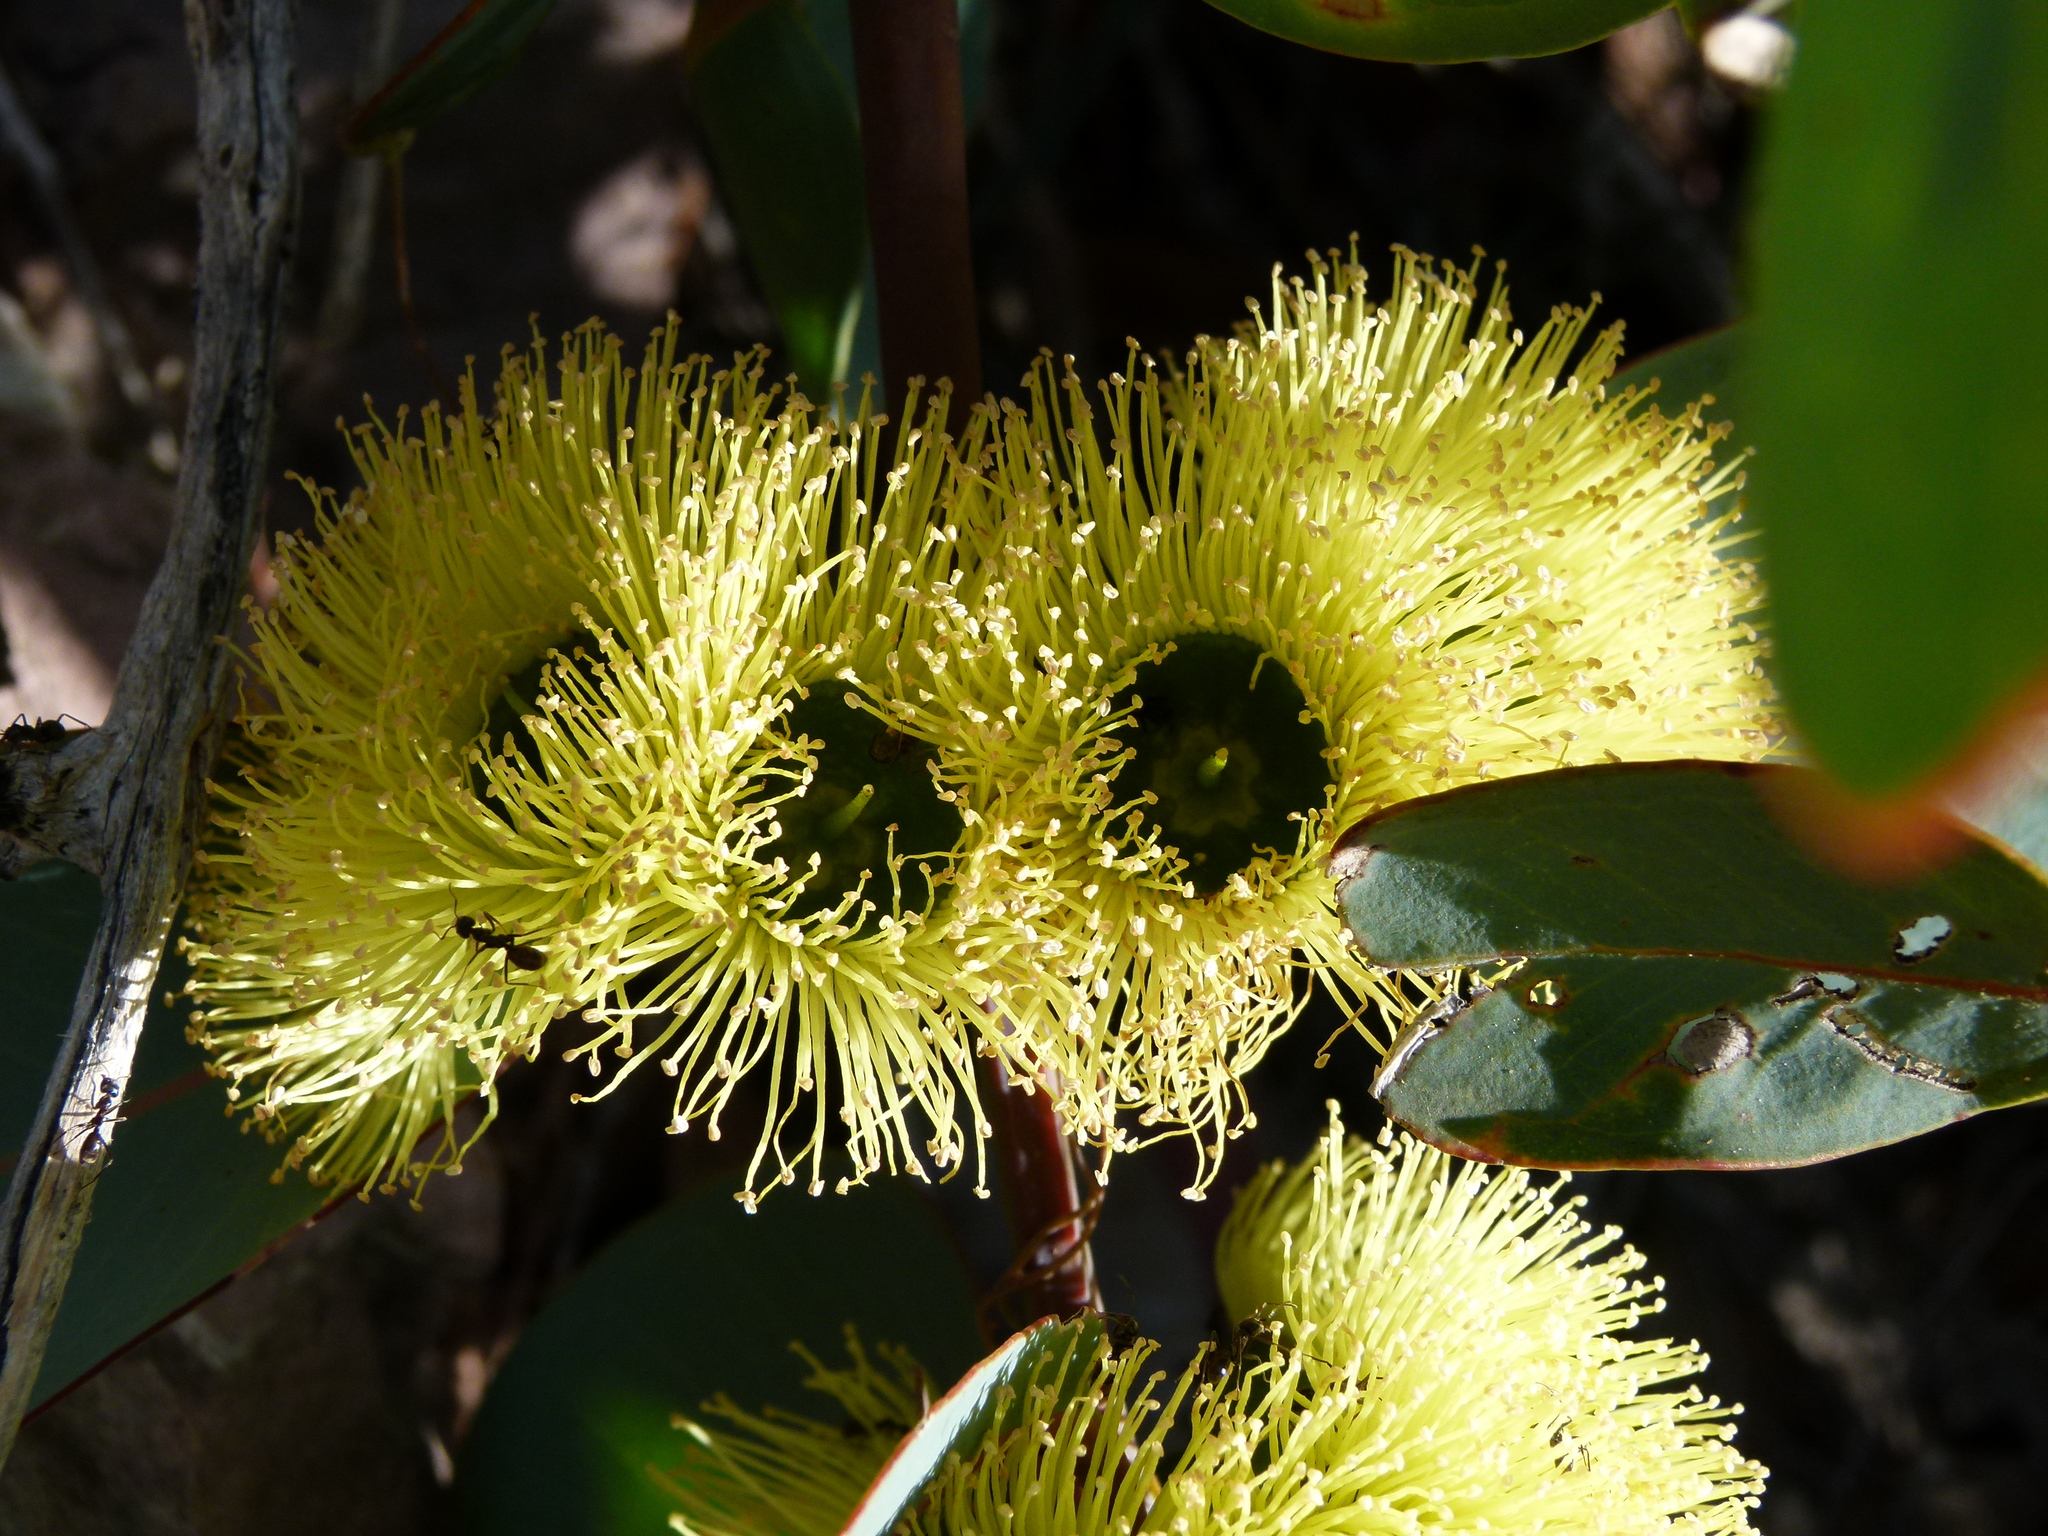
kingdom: Plantae
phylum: Tracheophyta
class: Magnoliopsida
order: Myrtales
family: Myrtaceae
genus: Eucalyptus
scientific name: Eucalyptus preissiana
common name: Stirling range mallee
